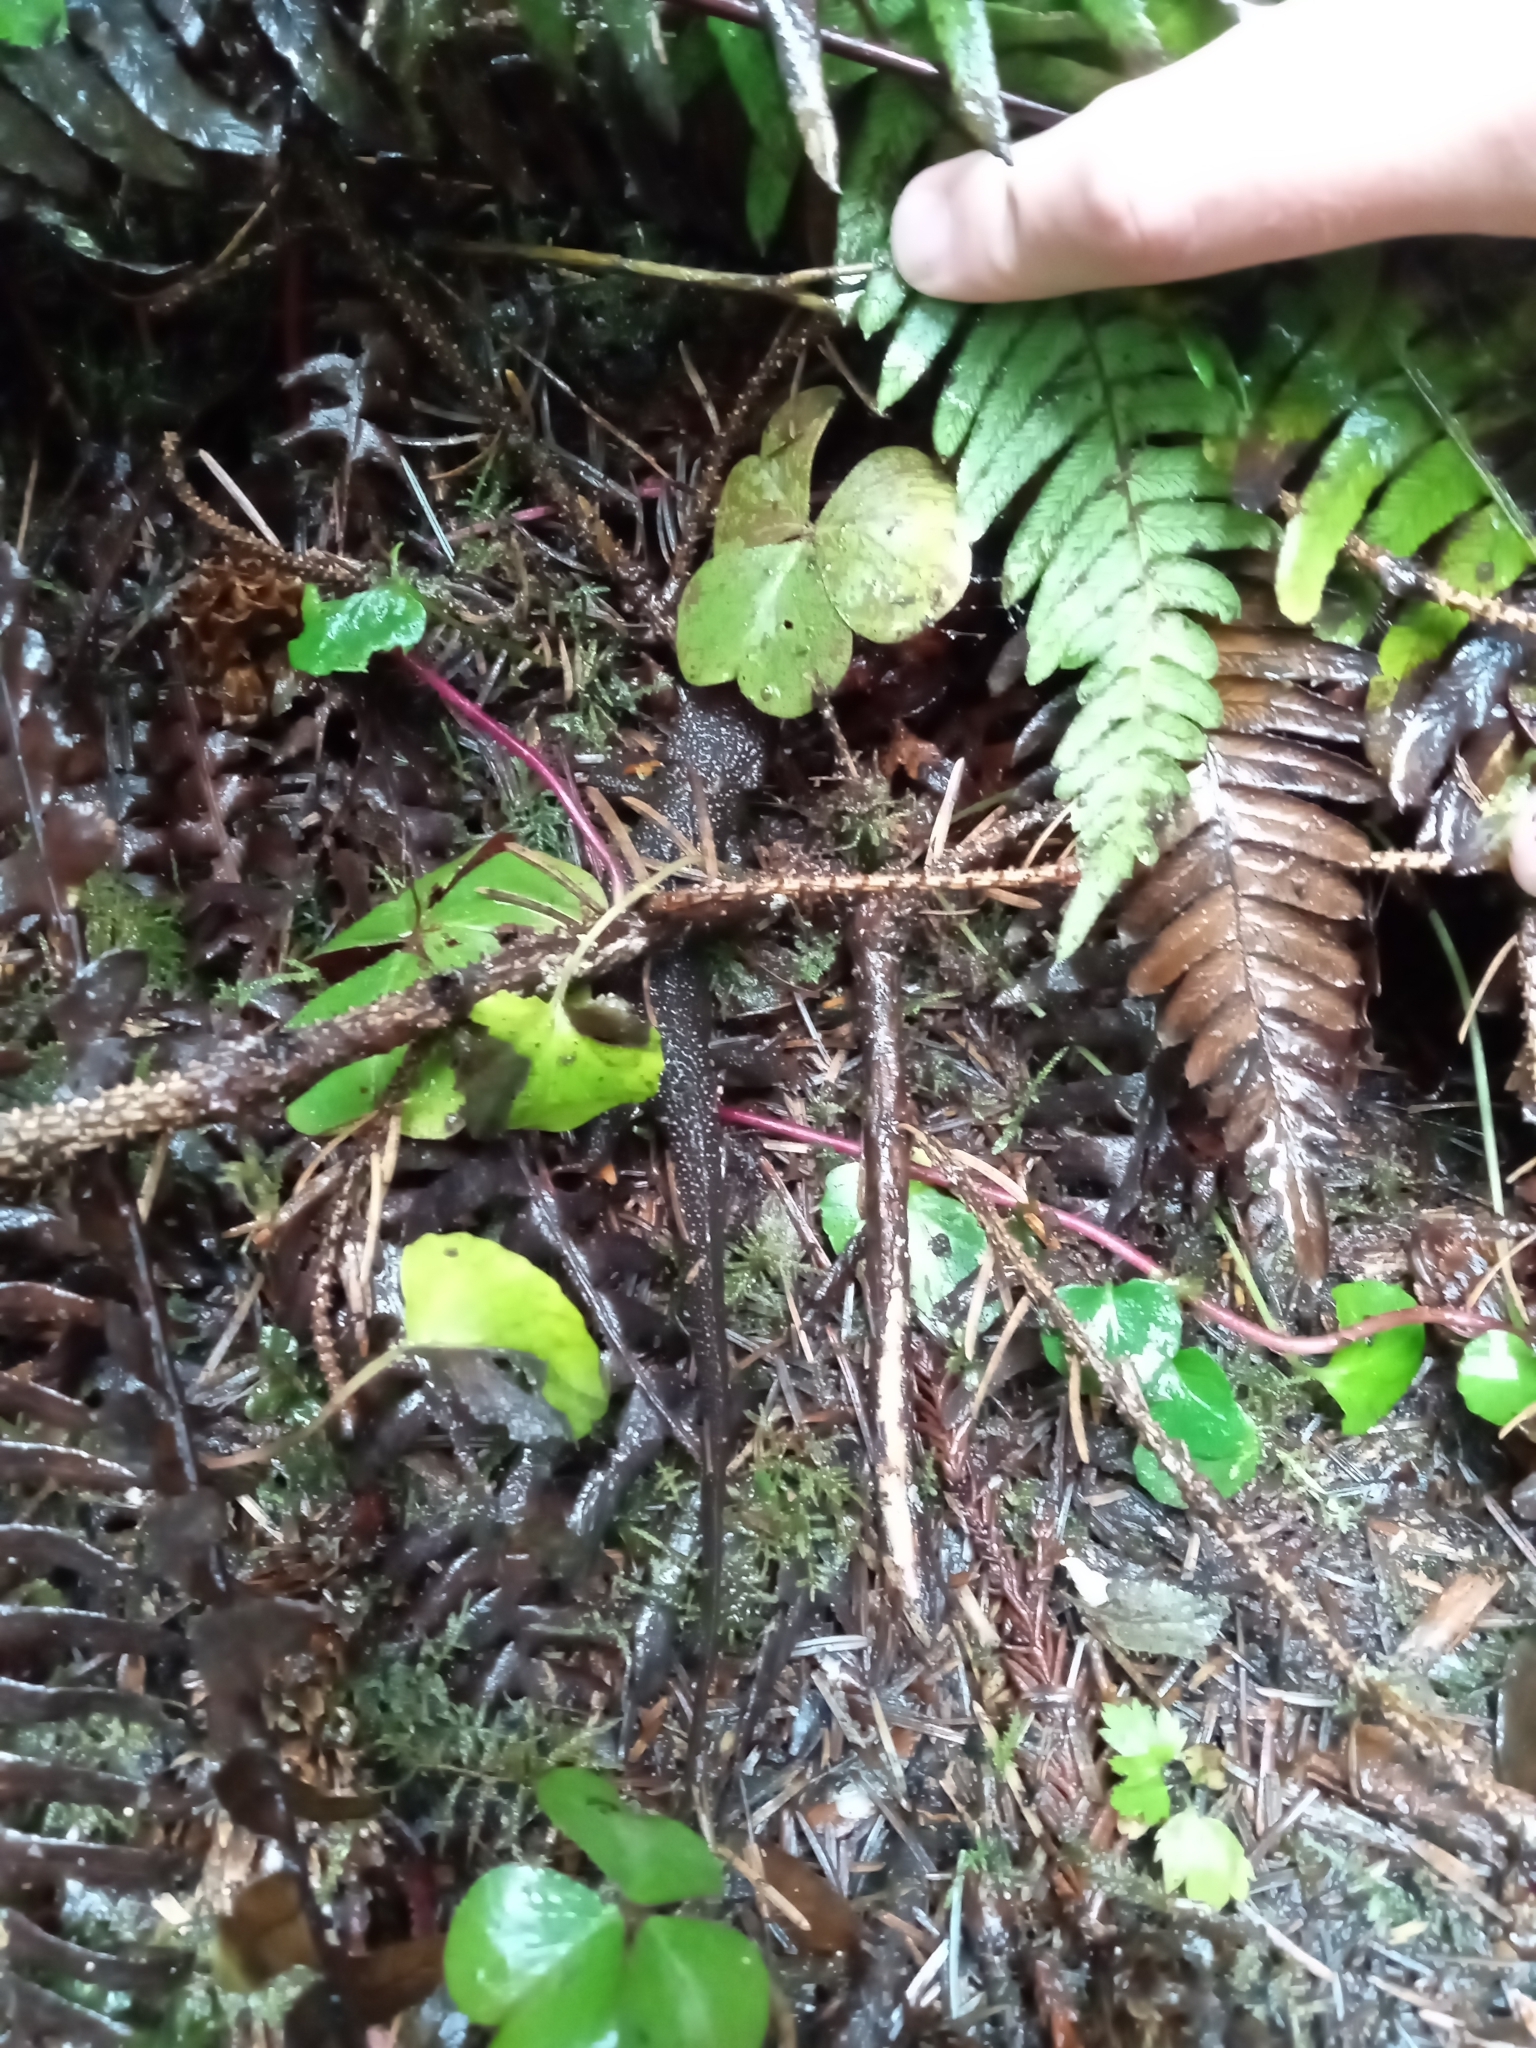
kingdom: Animalia
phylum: Chordata
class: Amphibia
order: Caudata
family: Salamandridae
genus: Taricha
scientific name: Taricha granulosa
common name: Roughskin newt
